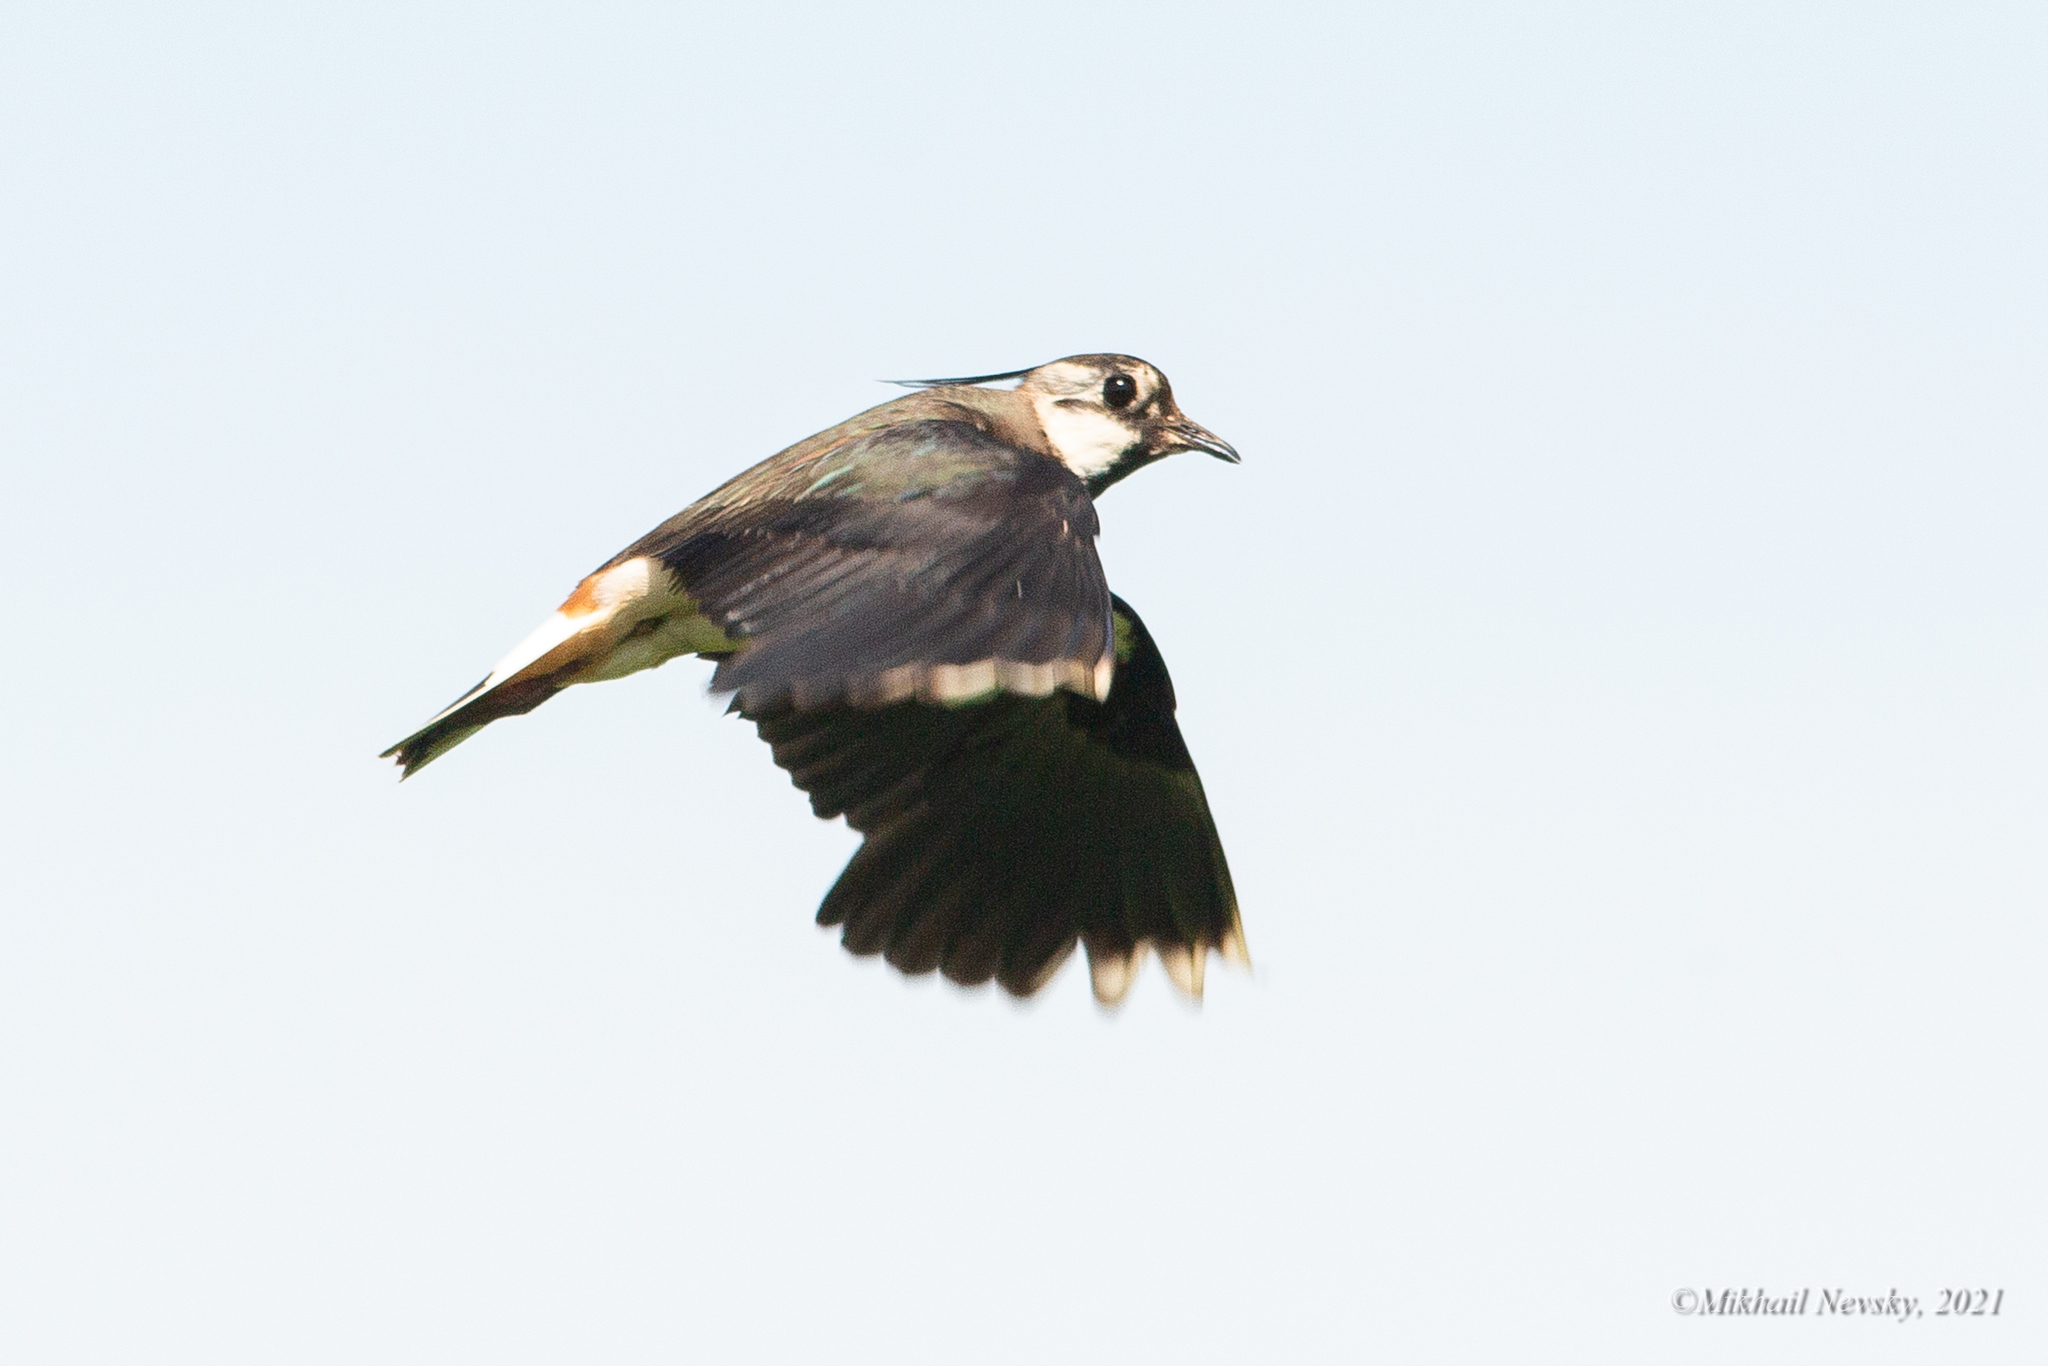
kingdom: Animalia
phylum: Chordata
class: Aves
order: Charadriiformes
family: Charadriidae
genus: Vanellus
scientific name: Vanellus vanellus
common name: Northern lapwing
